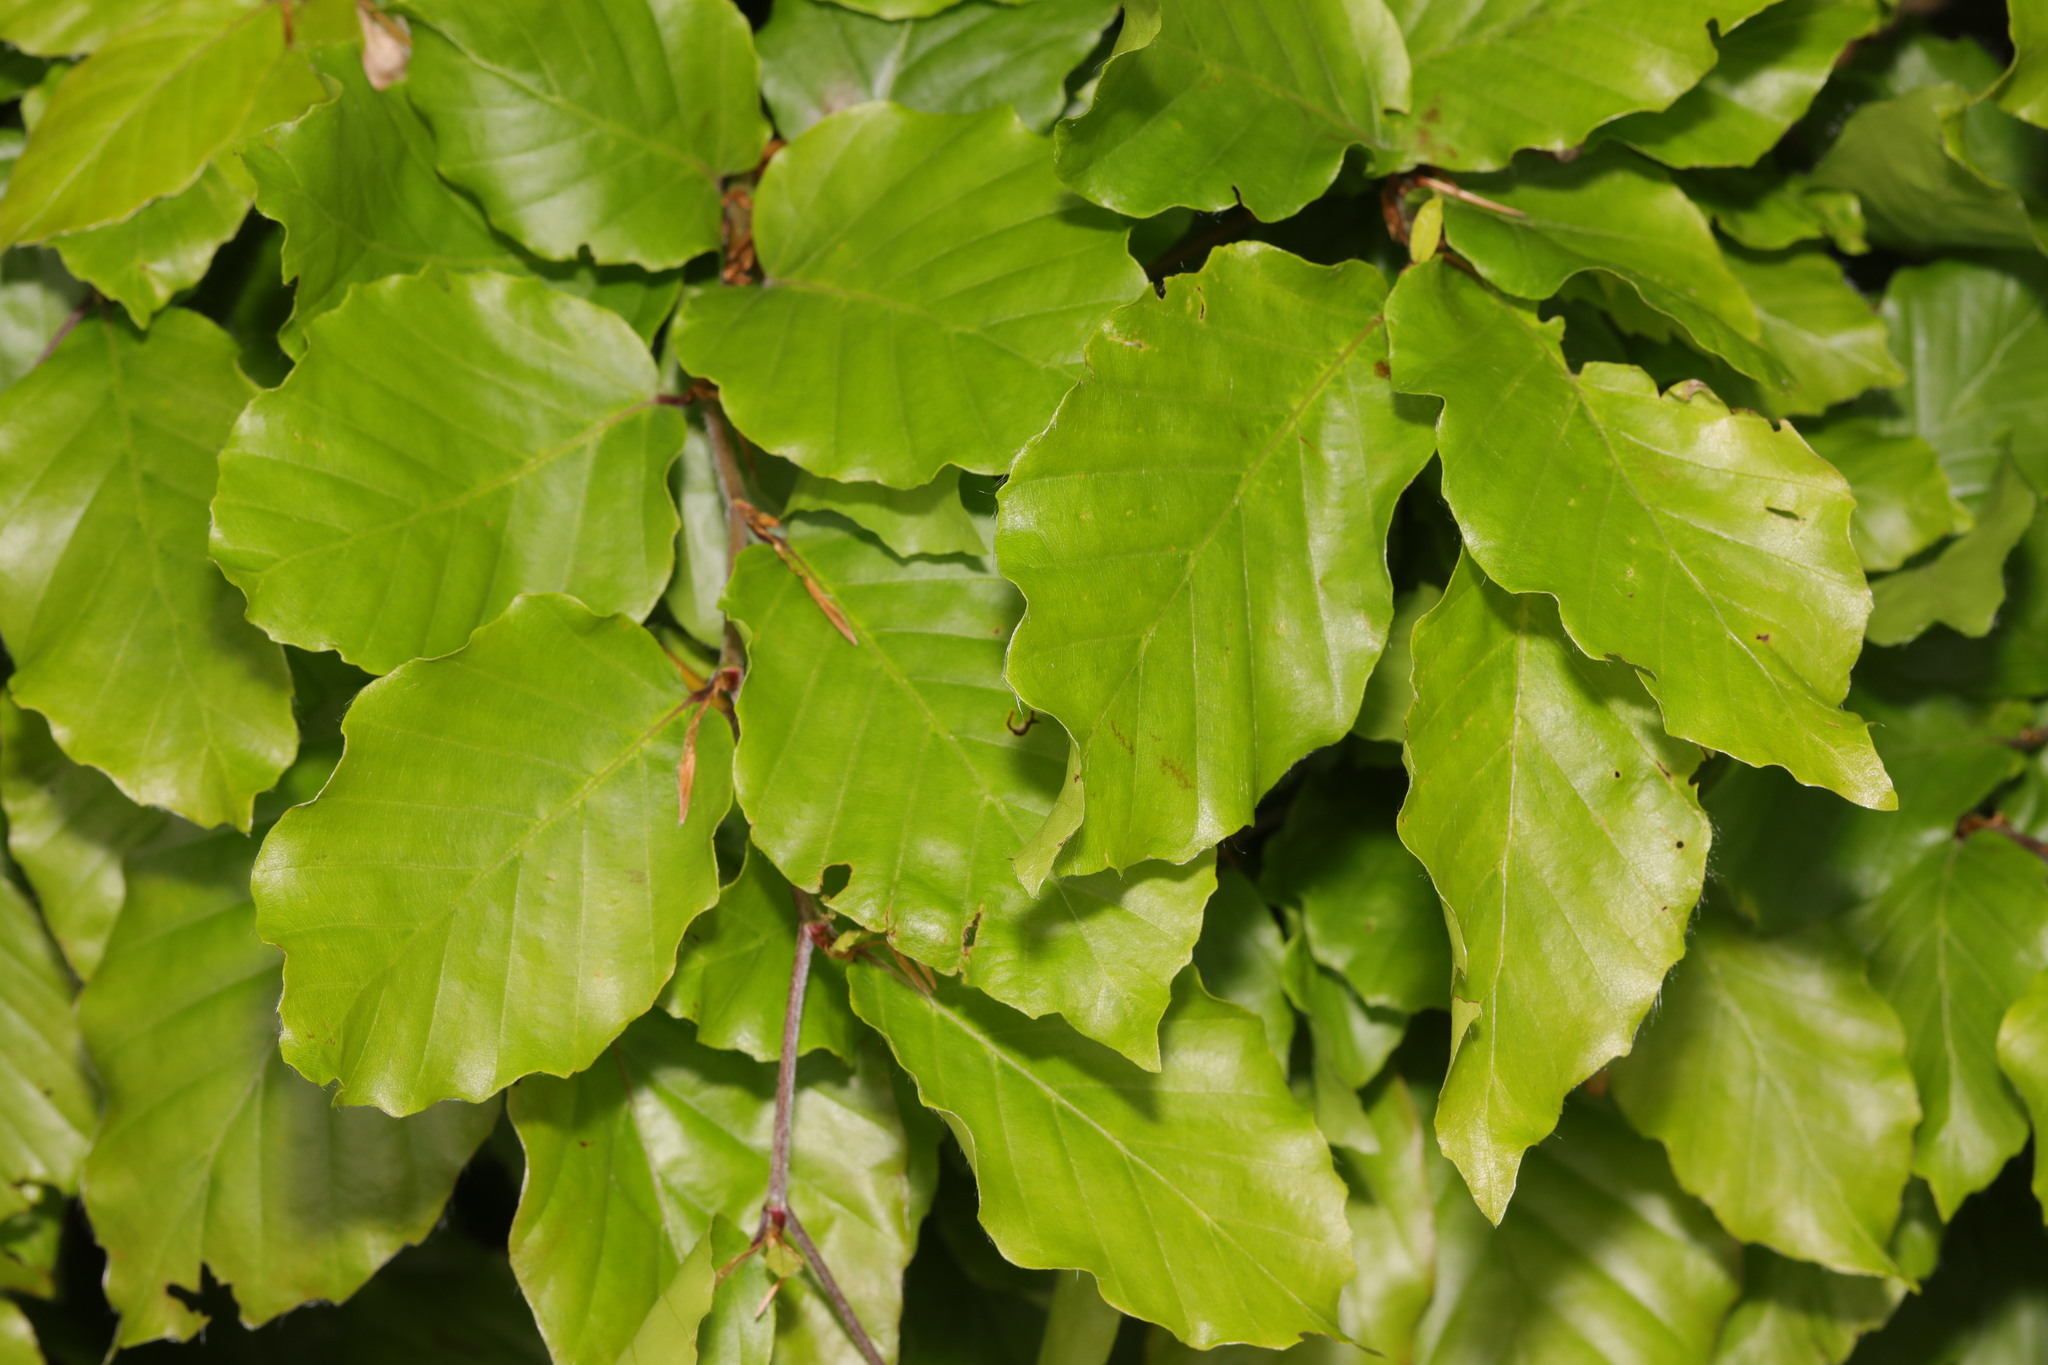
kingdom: Plantae
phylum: Tracheophyta
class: Magnoliopsida
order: Fagales
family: Fagaceae
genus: Fagus
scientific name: Fagus sylvatica
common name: Beech
